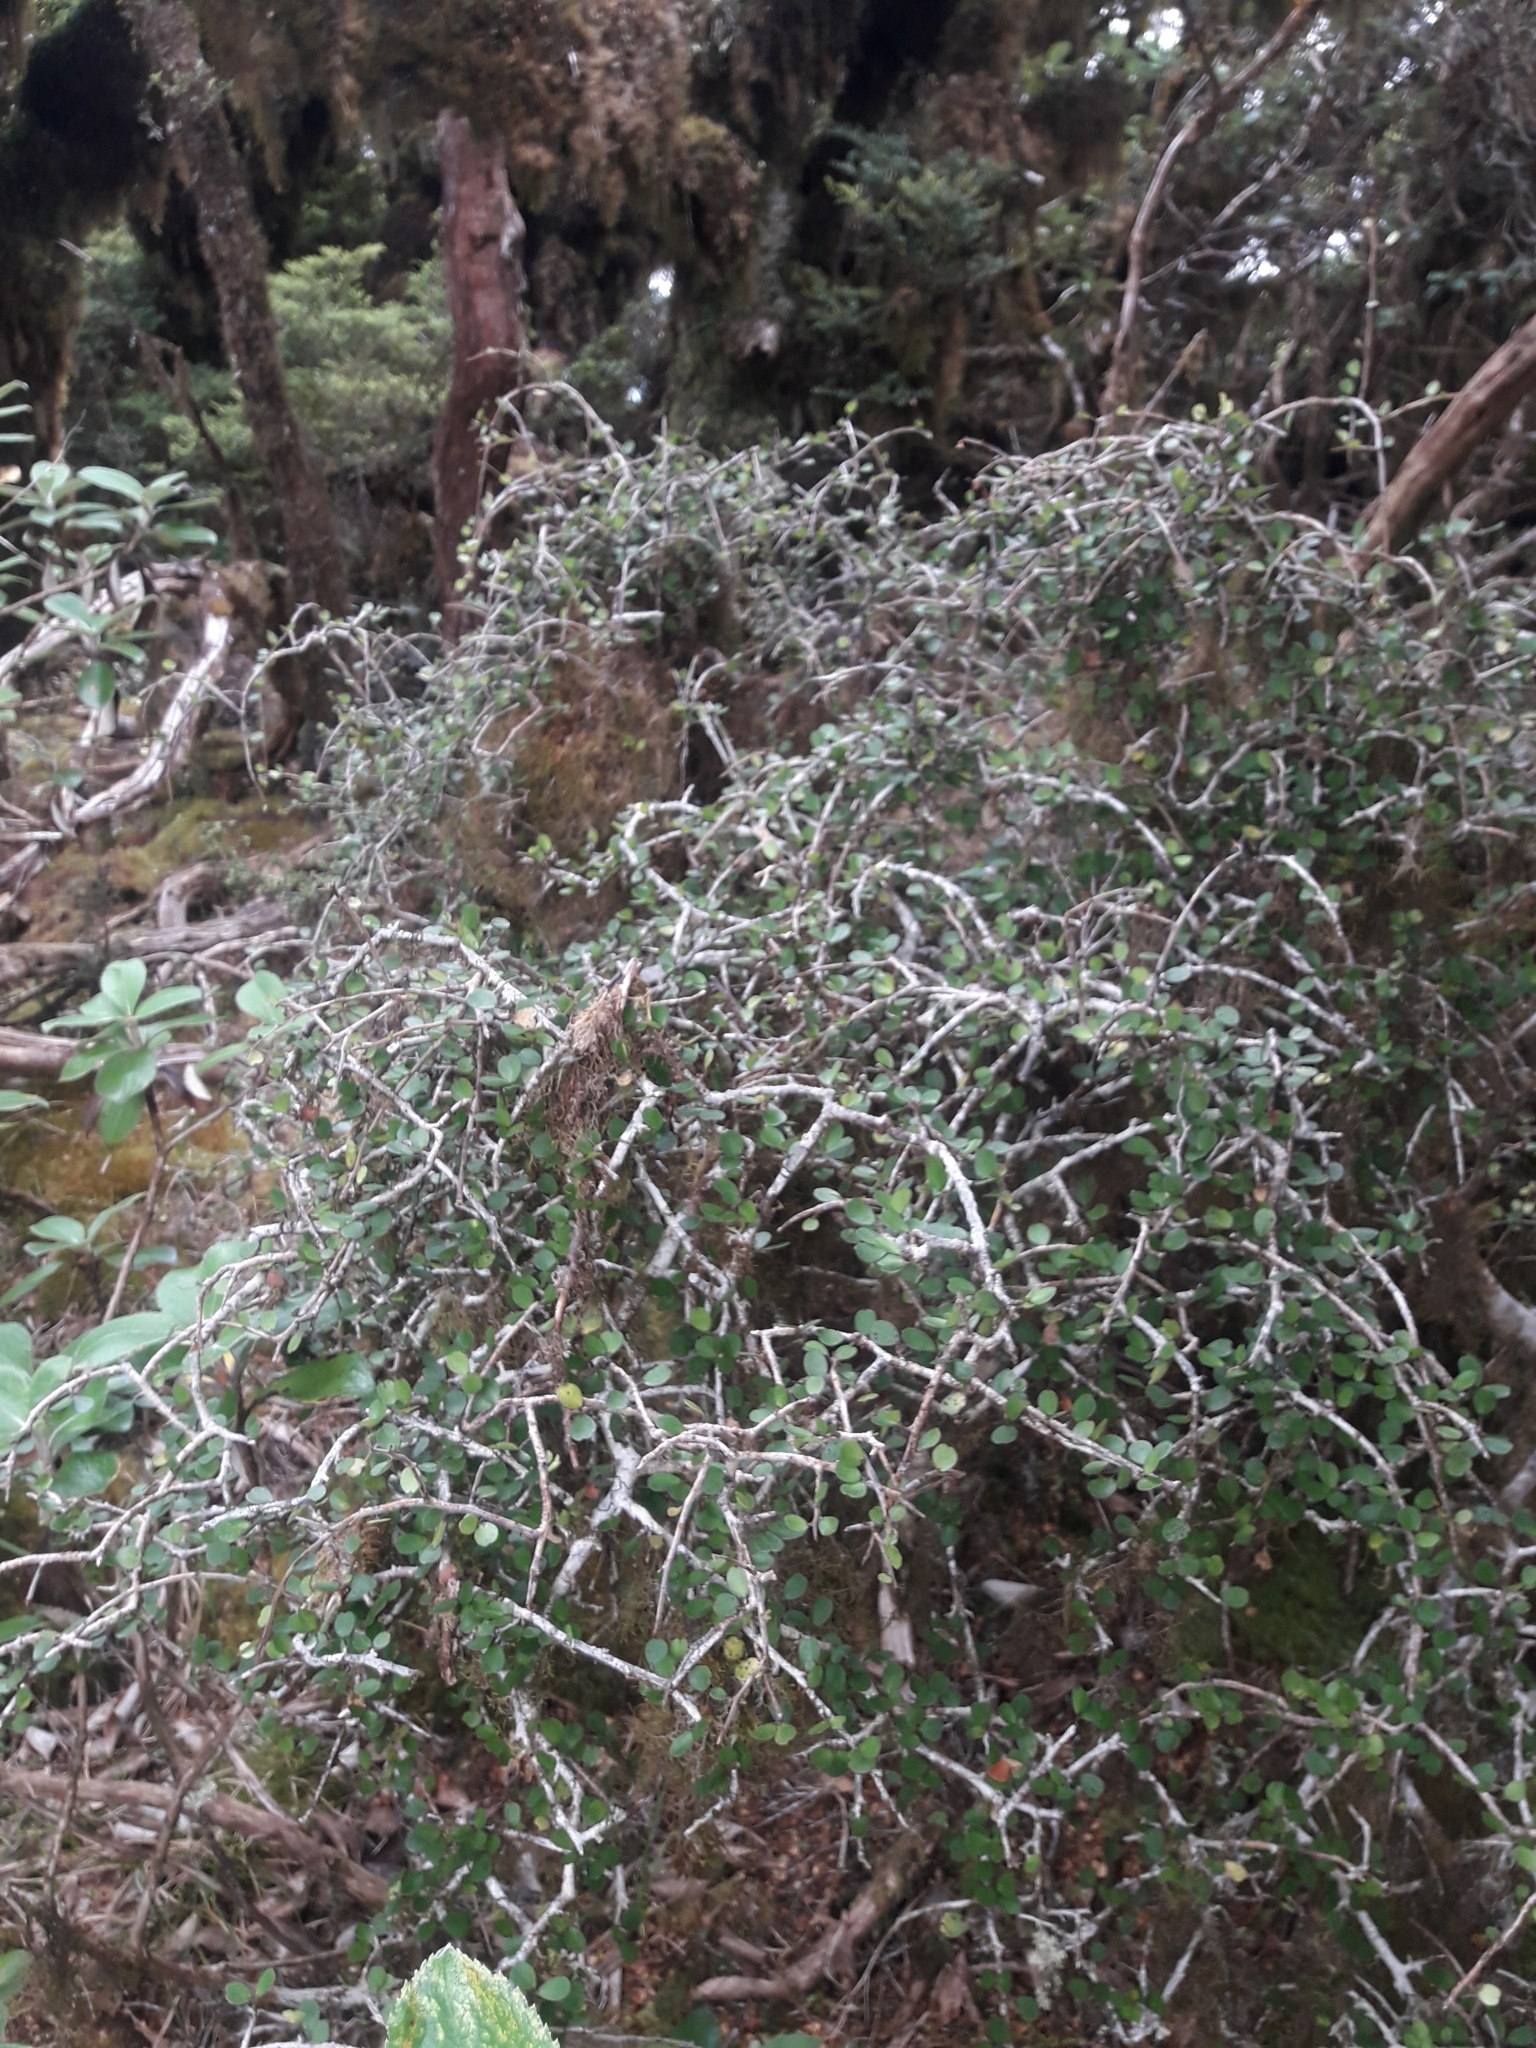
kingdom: Plantae
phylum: Tracheophyta
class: Magnoliopsida
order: Ericales
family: Primulaceae
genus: Myrsine
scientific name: Myrsine divaricata
